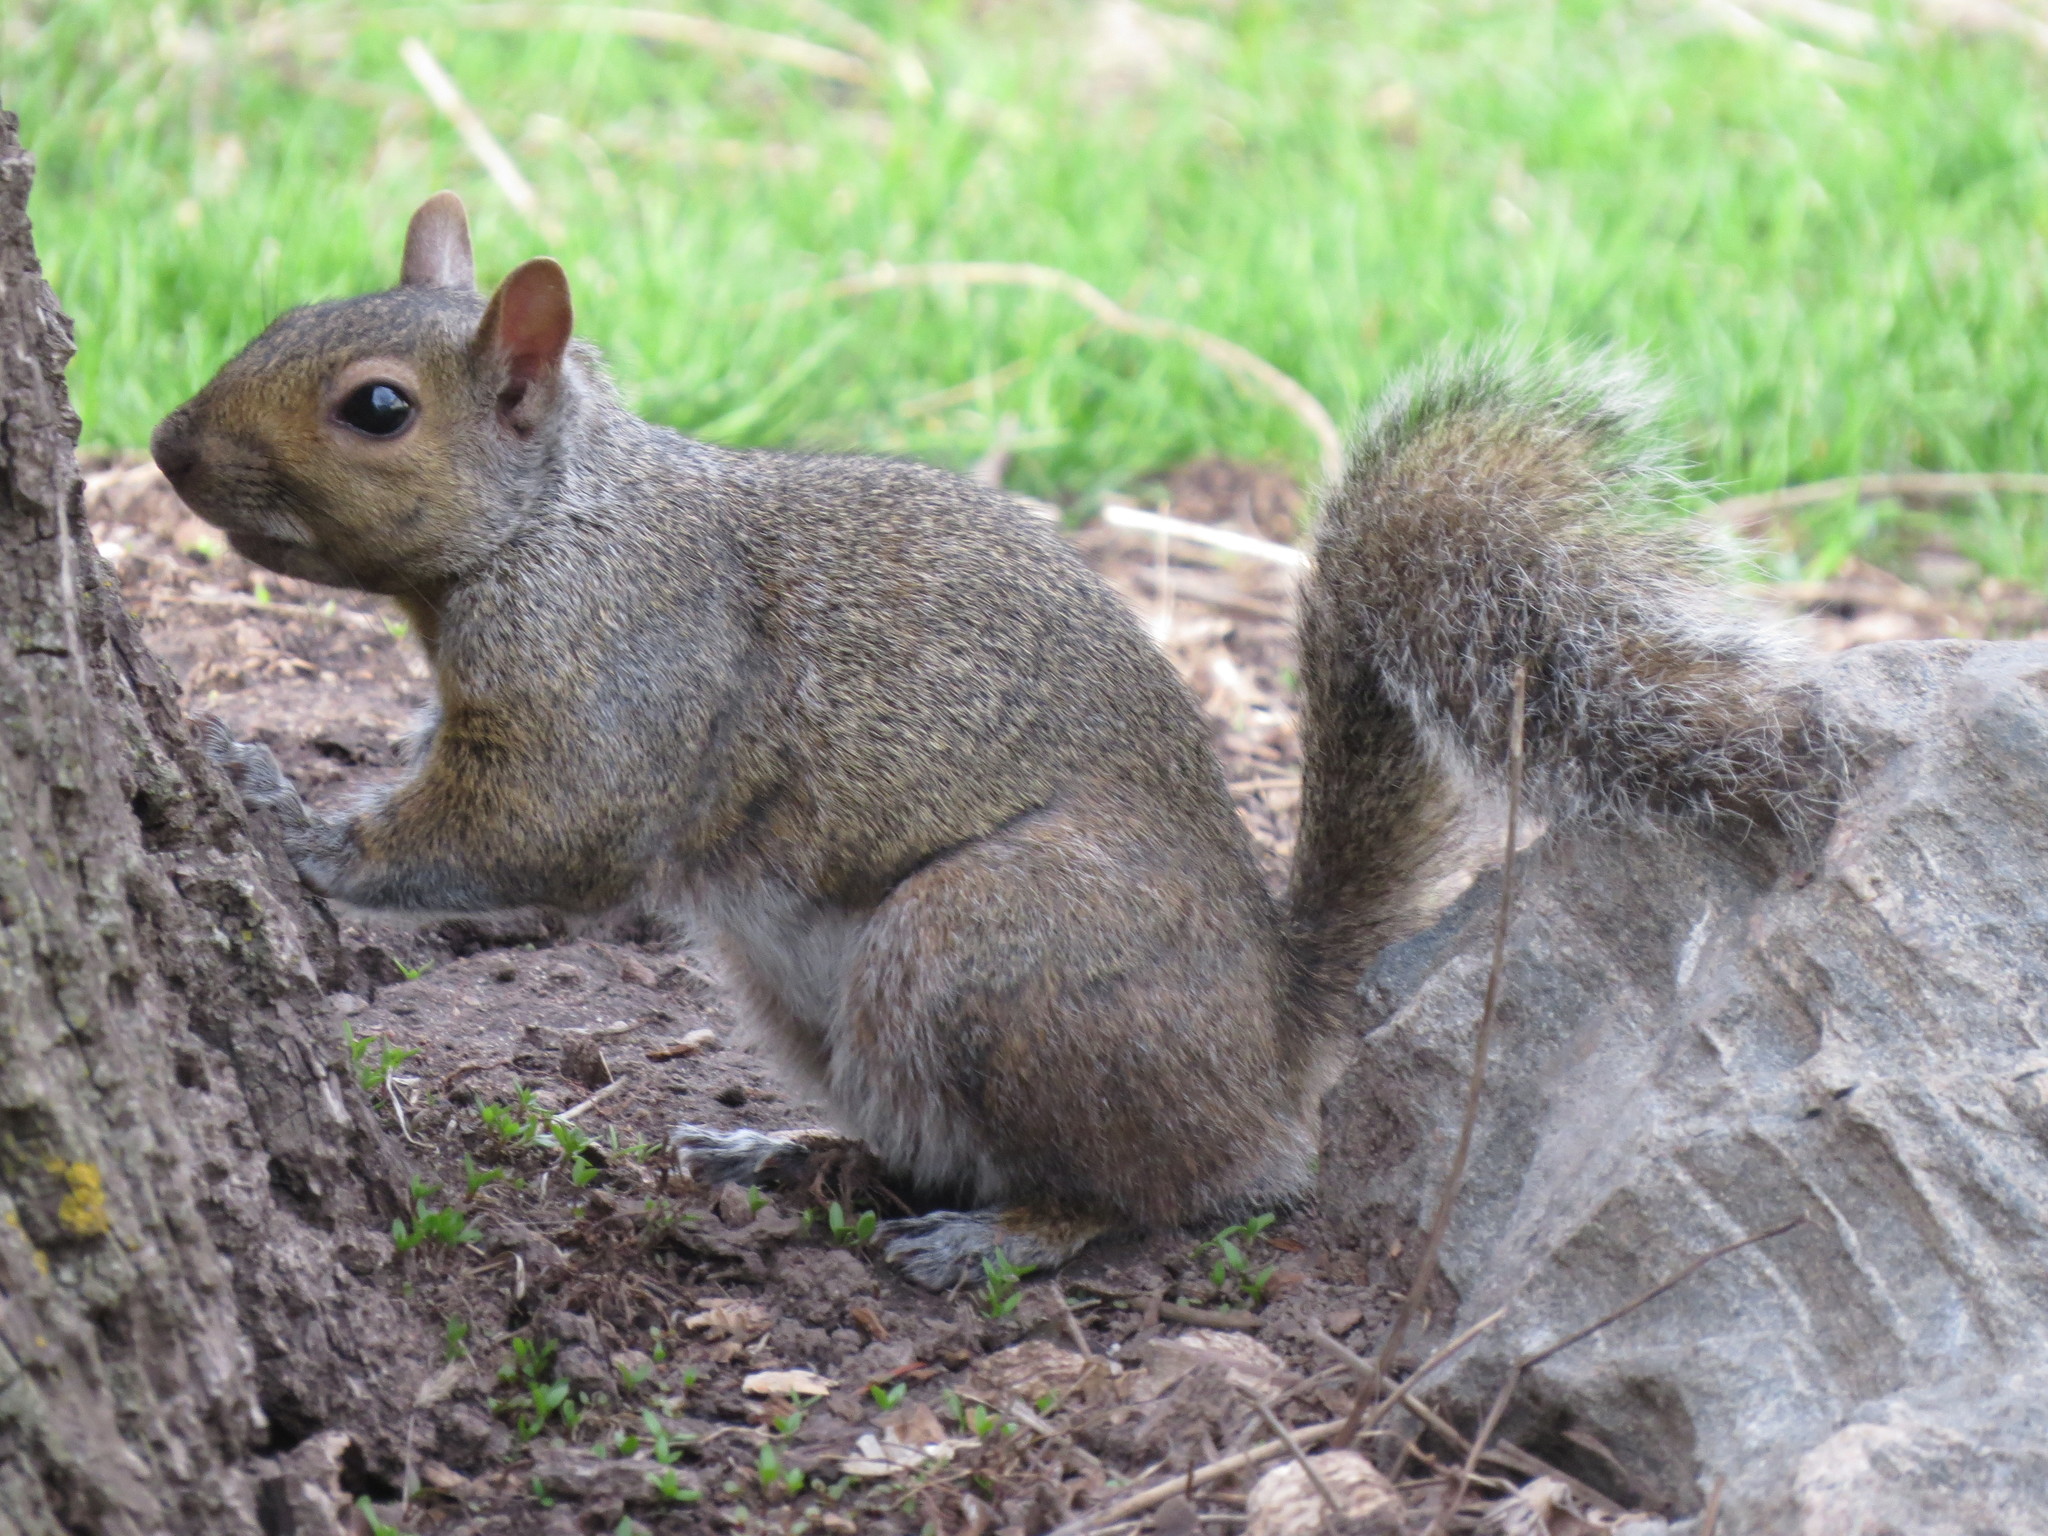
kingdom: Animalia
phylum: Chordata
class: Mammalia
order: Rodentia
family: Sciuridae
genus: Sciurus
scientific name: Sciurus carolinensis
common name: Eastern gray squirrel
